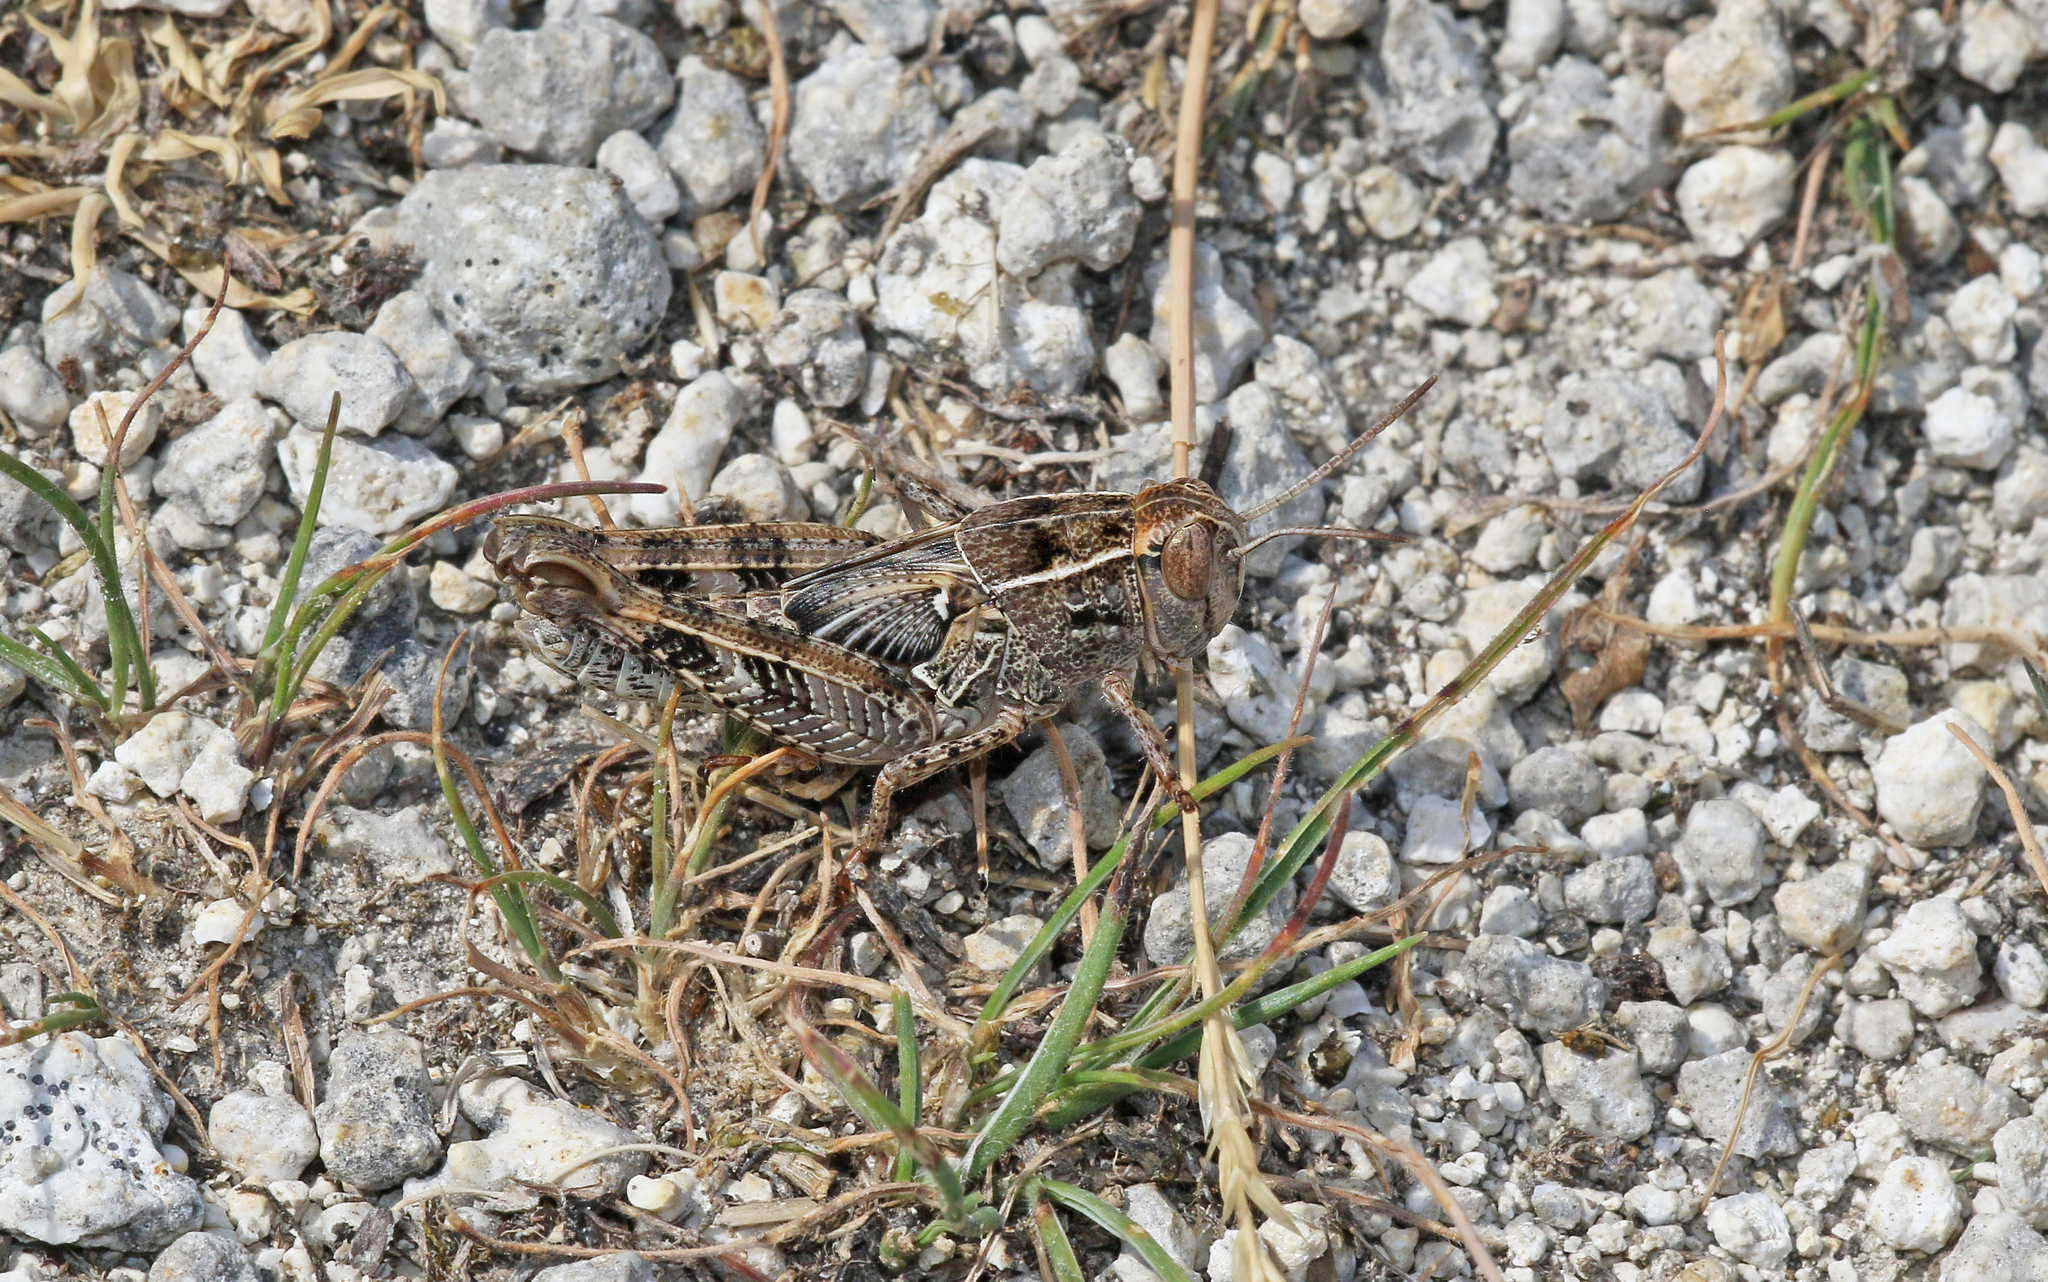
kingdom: Animalia
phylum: Arthropoda
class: Insecta
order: Orthoptera
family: Acrididae
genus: Calliptamus
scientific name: Calliptamus italicus
